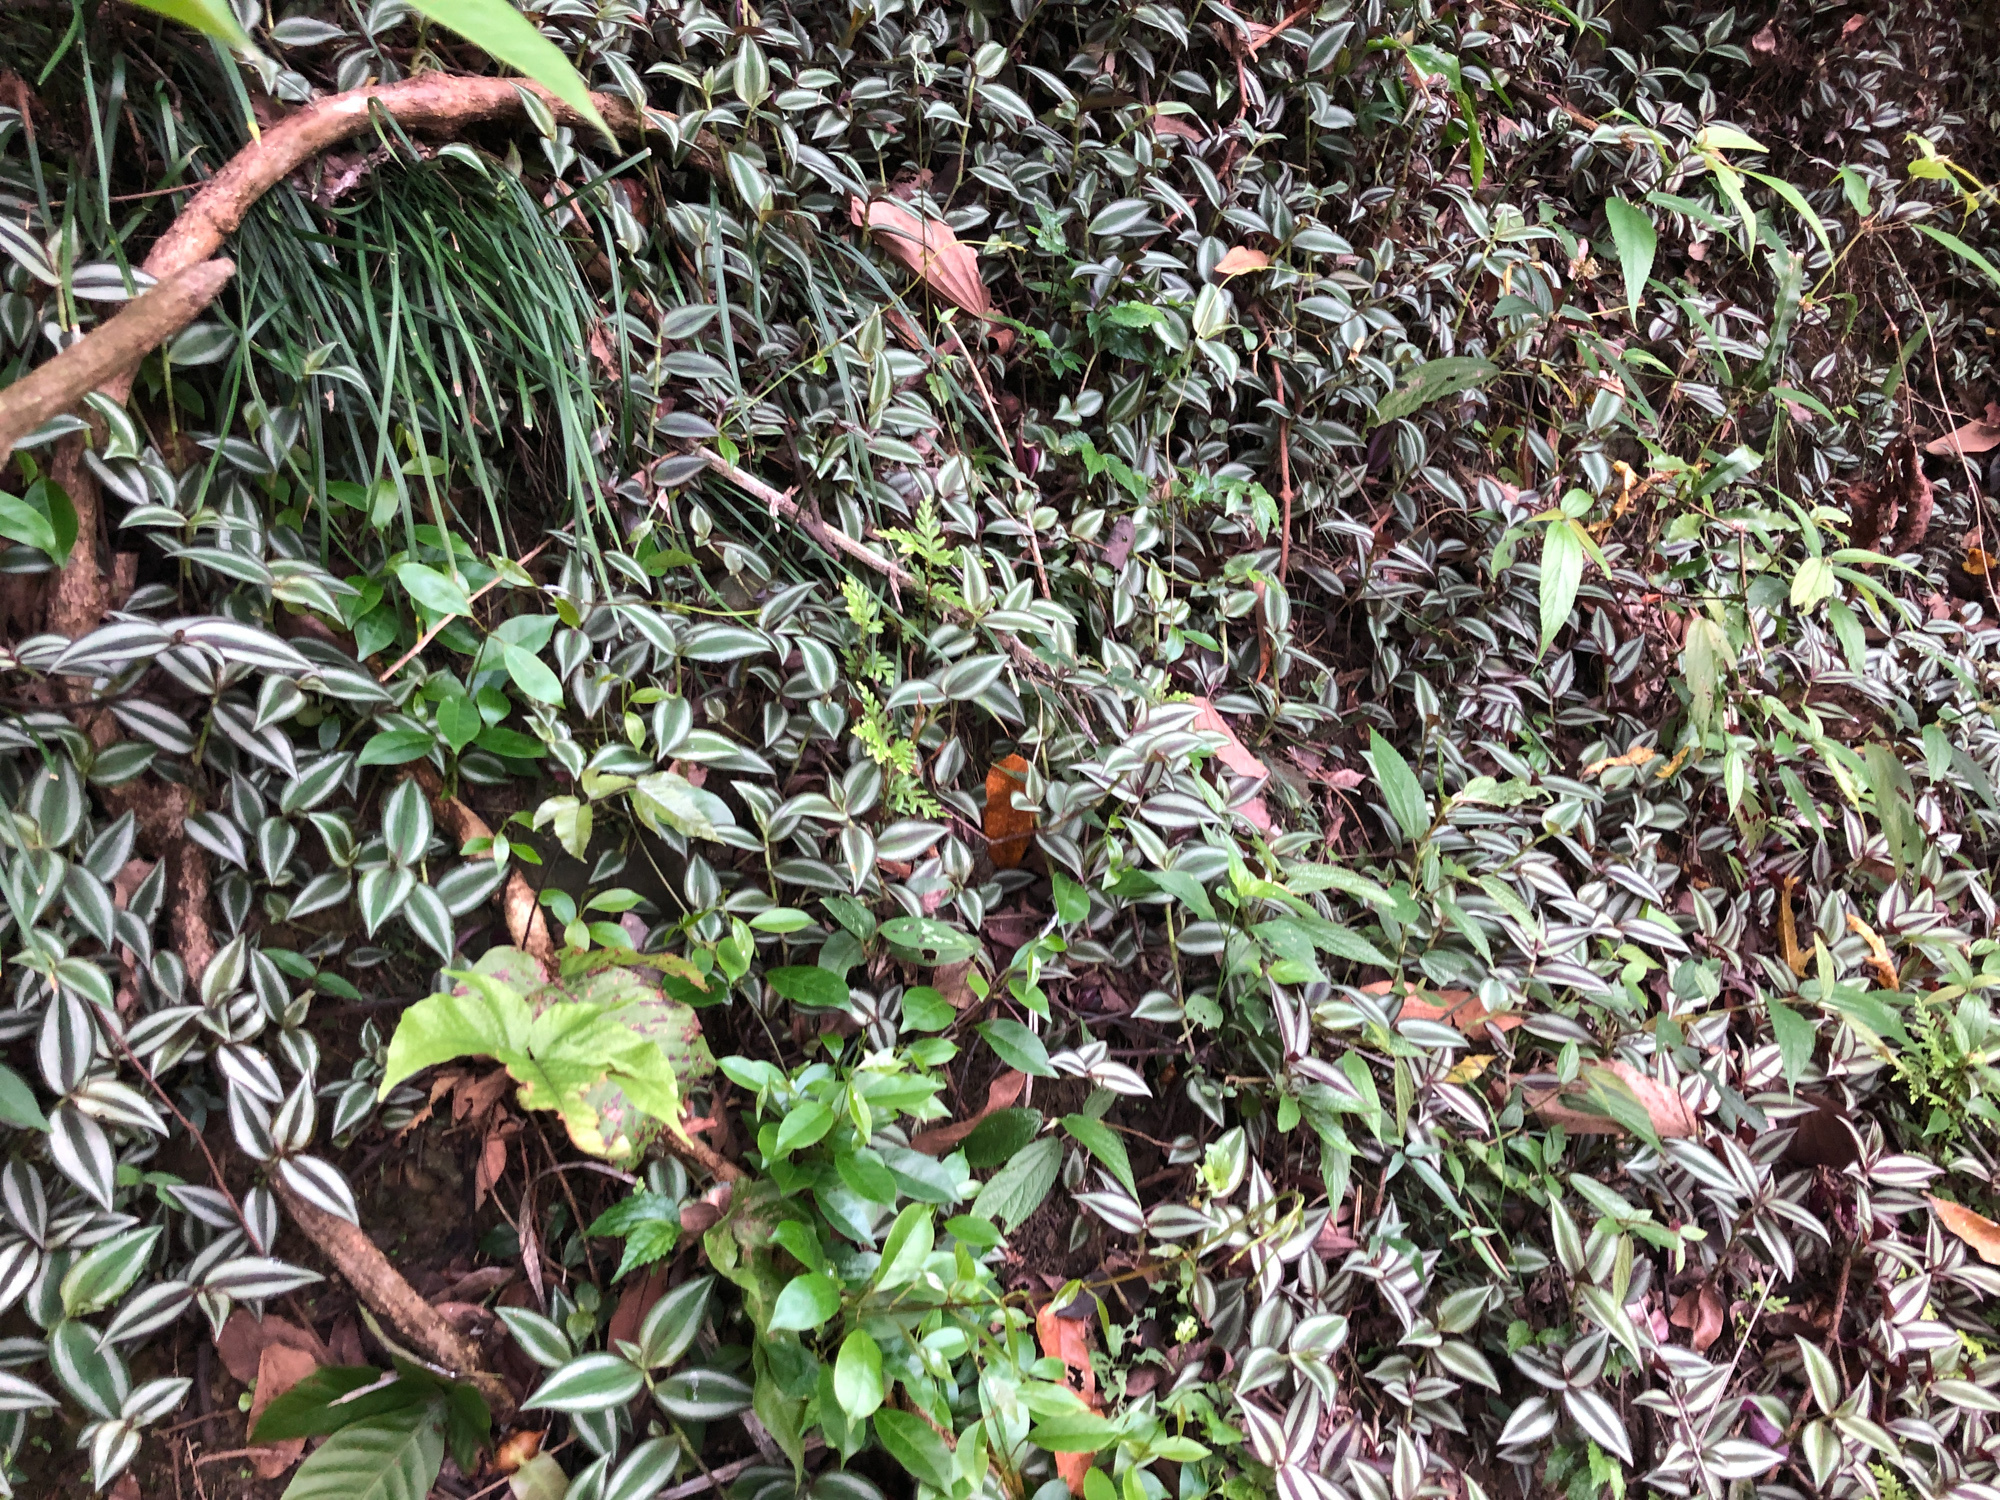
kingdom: Plantae
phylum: Tracheophyta
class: Liliopsida
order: Commelinales
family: Commelinaceae
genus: Tradescantia
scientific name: Tradescantia zebrina
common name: Inchplant
